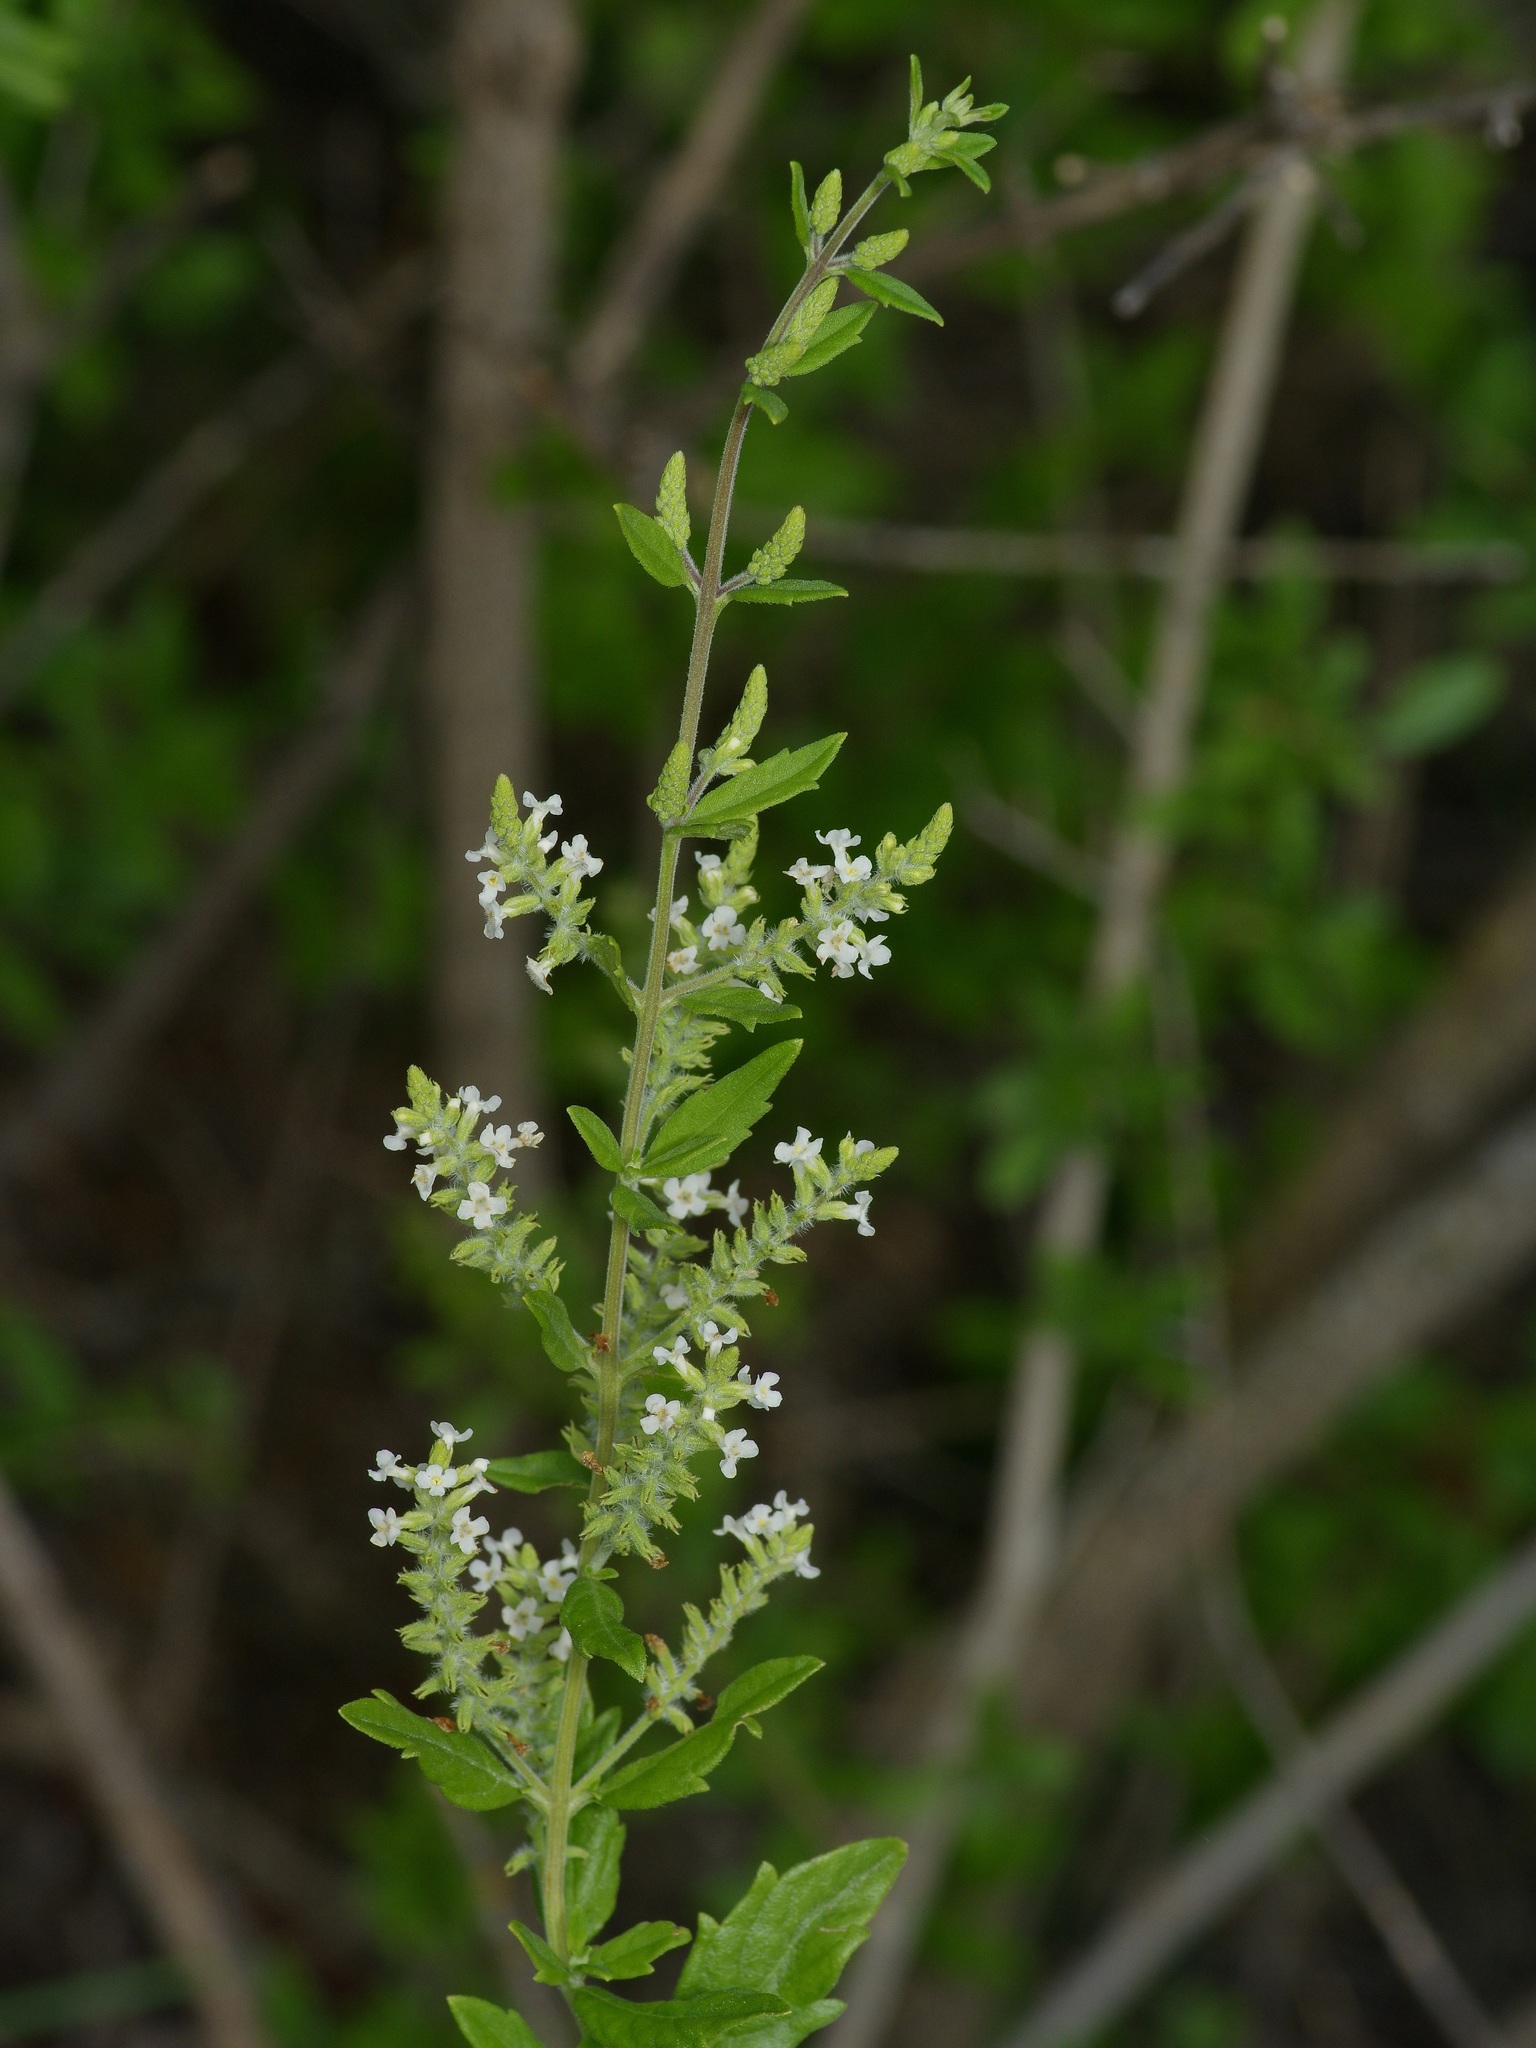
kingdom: Plantae
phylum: Tracheophyta
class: Magnoliopsida
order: Lamiales
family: Verbenaceae
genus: Aloysia
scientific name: Aloysia gratissima
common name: Common bee-brush
